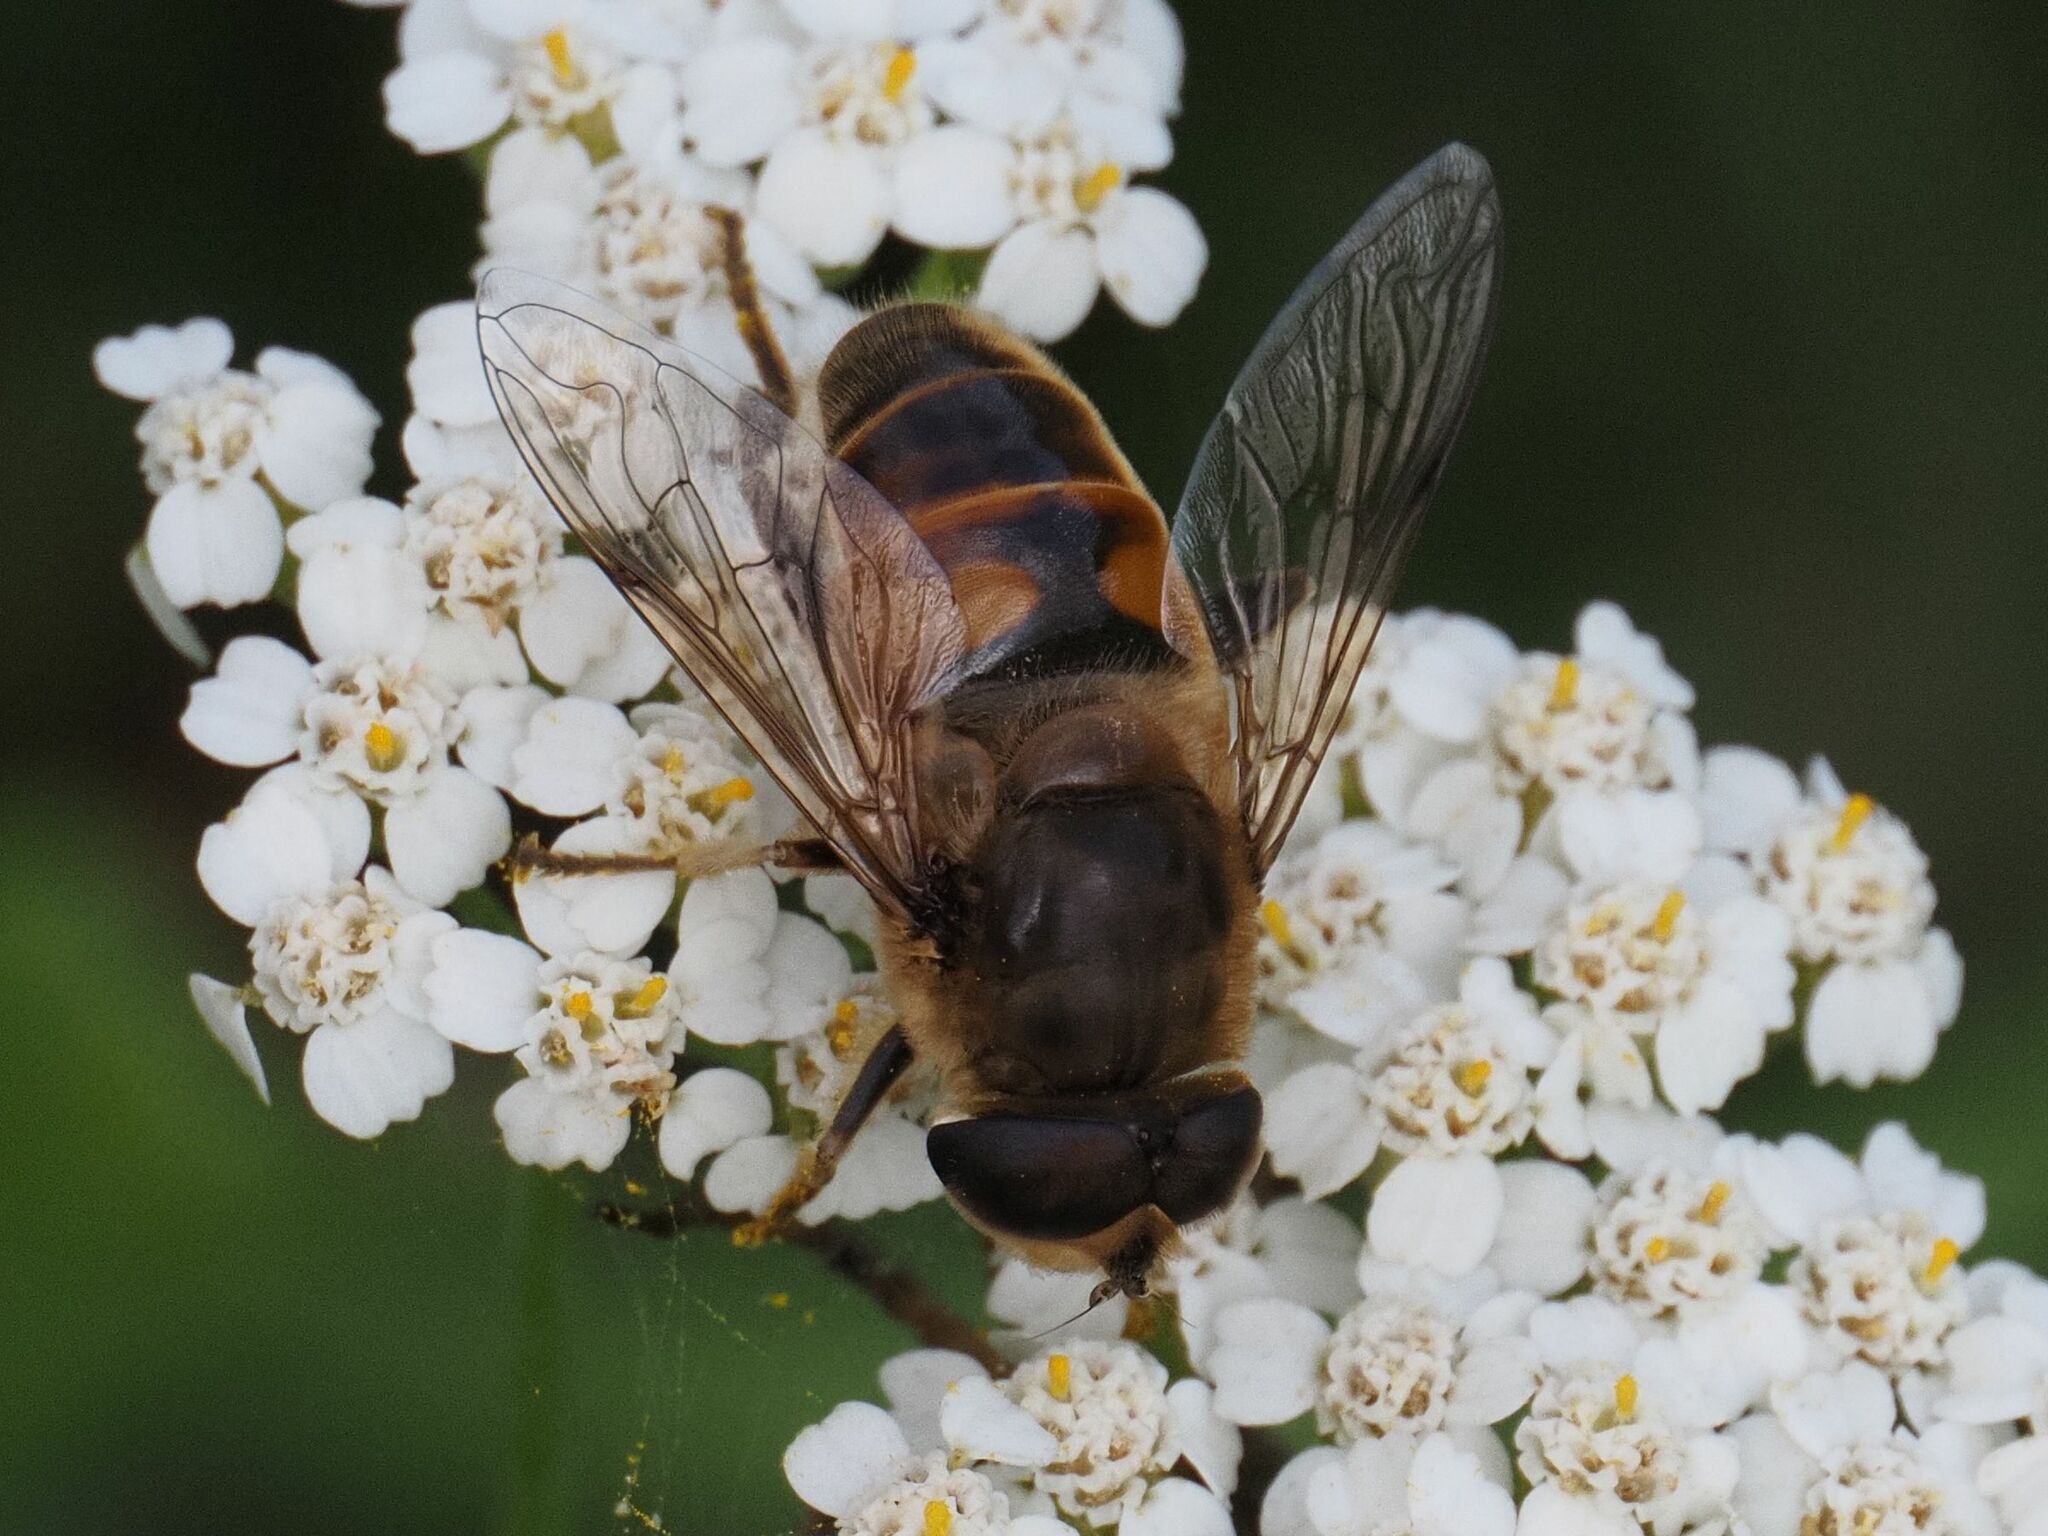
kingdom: Animalia
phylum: Arthropoda
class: Insecta
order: Diptera
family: Syrphidae
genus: Eristalis
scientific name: Eristalis tenax
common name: Drone fly
